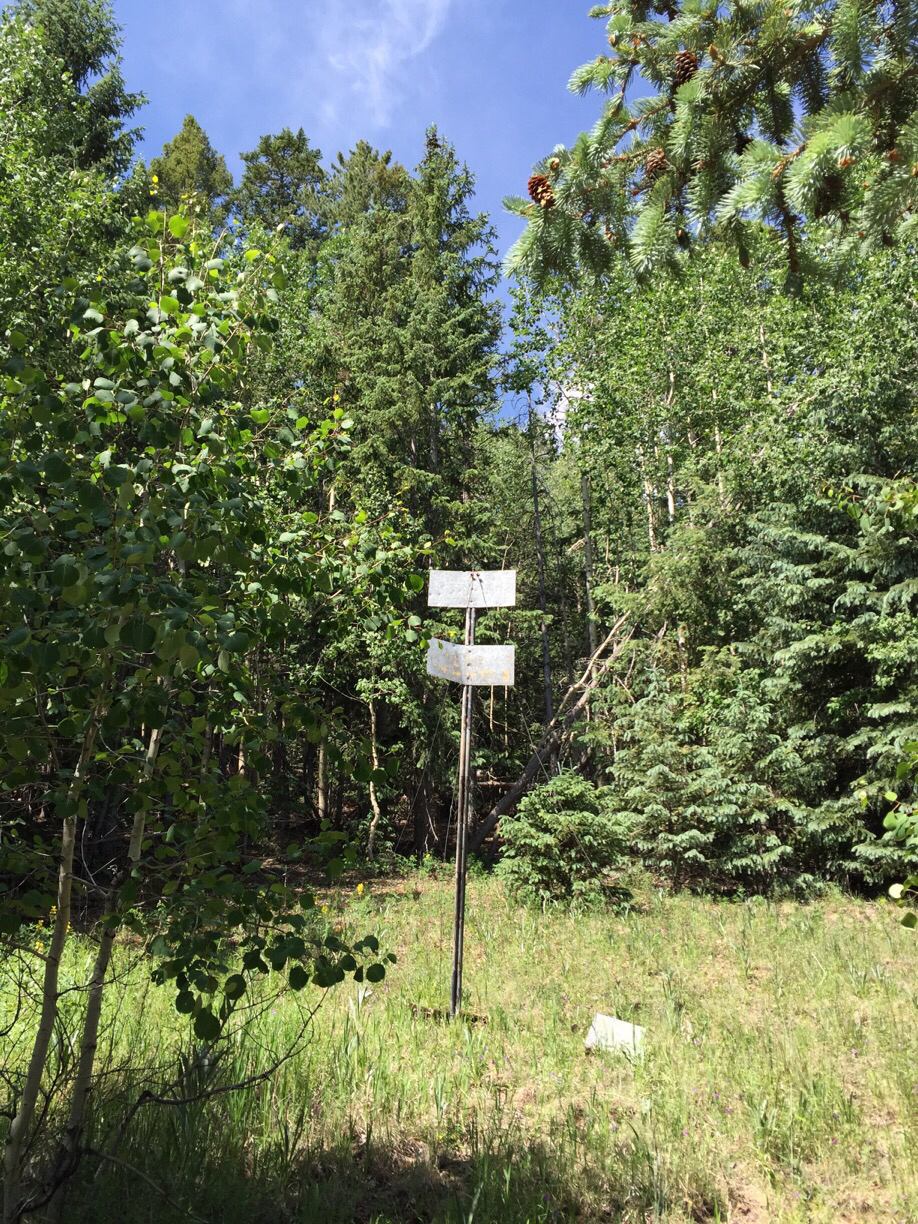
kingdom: Plantae
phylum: Tracheophyta
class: Magnoliopsida
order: Malpighiales
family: Salicaceae
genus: Populus
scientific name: Populus tremuloides
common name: Quaking aspen
